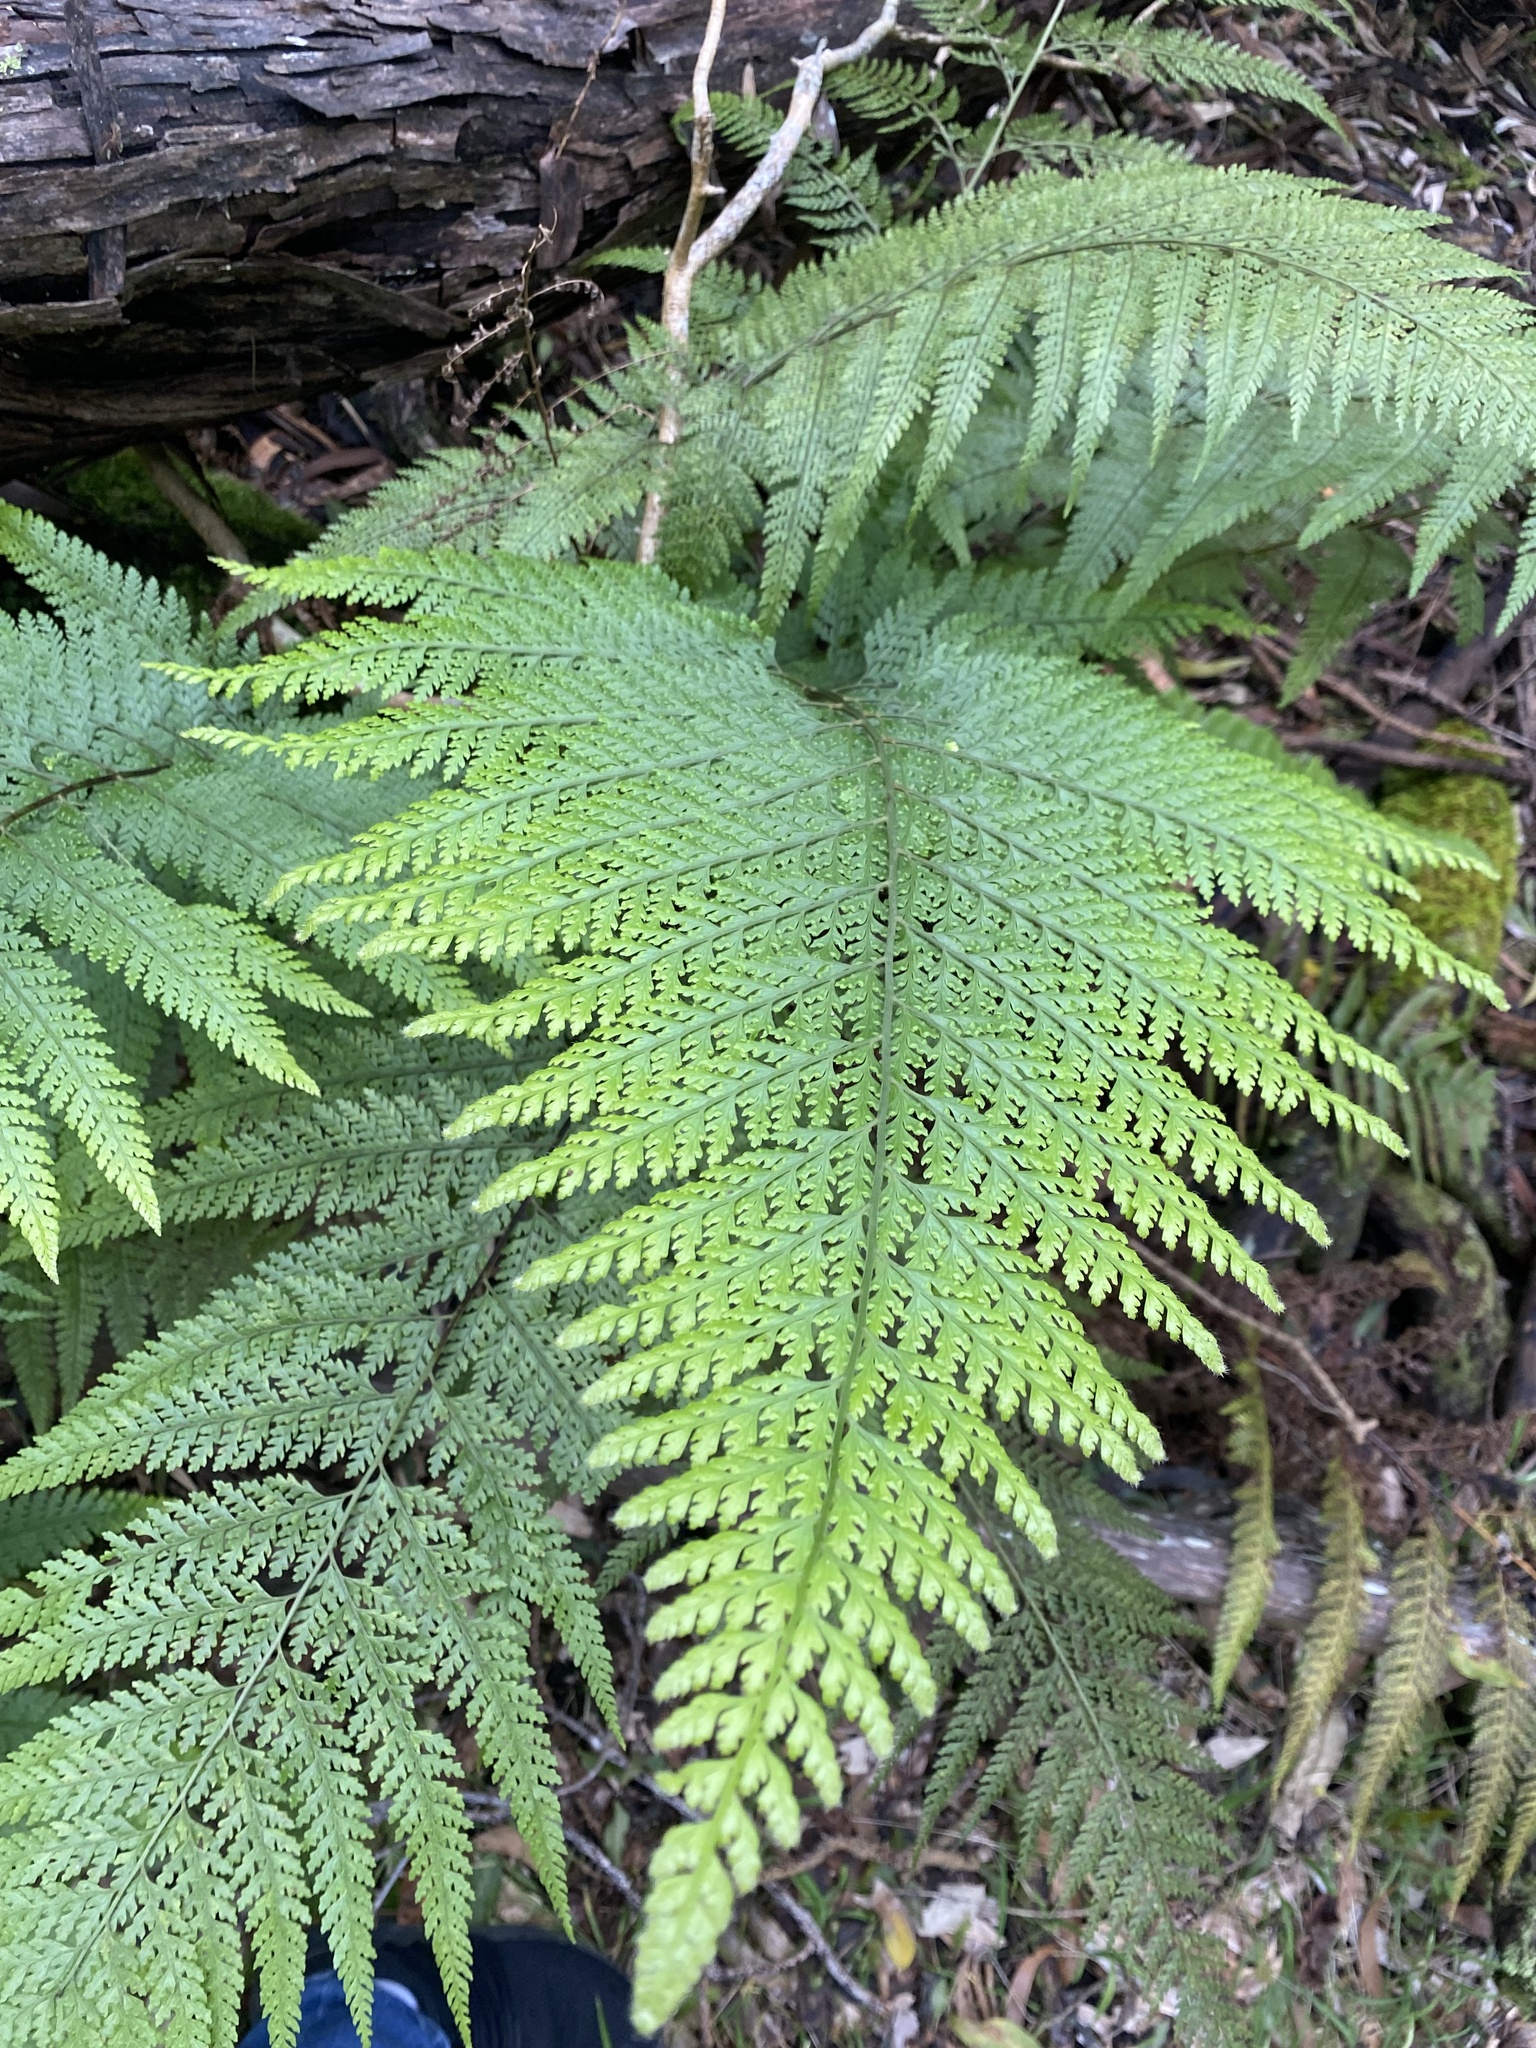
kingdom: Plantae
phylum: Tracheophyta
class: Polypodiopsida
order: Polypodiales
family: Dennstaedtiaceae
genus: Microlepia
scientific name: Microlepia setosa
